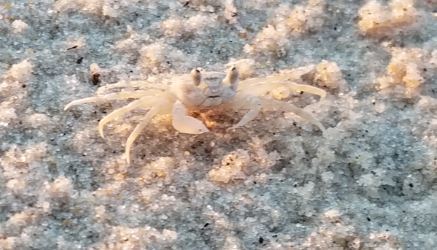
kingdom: Animalia
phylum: Arthropoda
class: Malacostraca
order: Decapoda
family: Ocypodidae
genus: Ocypode
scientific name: Ocypode quadrata
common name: Ghost crab
